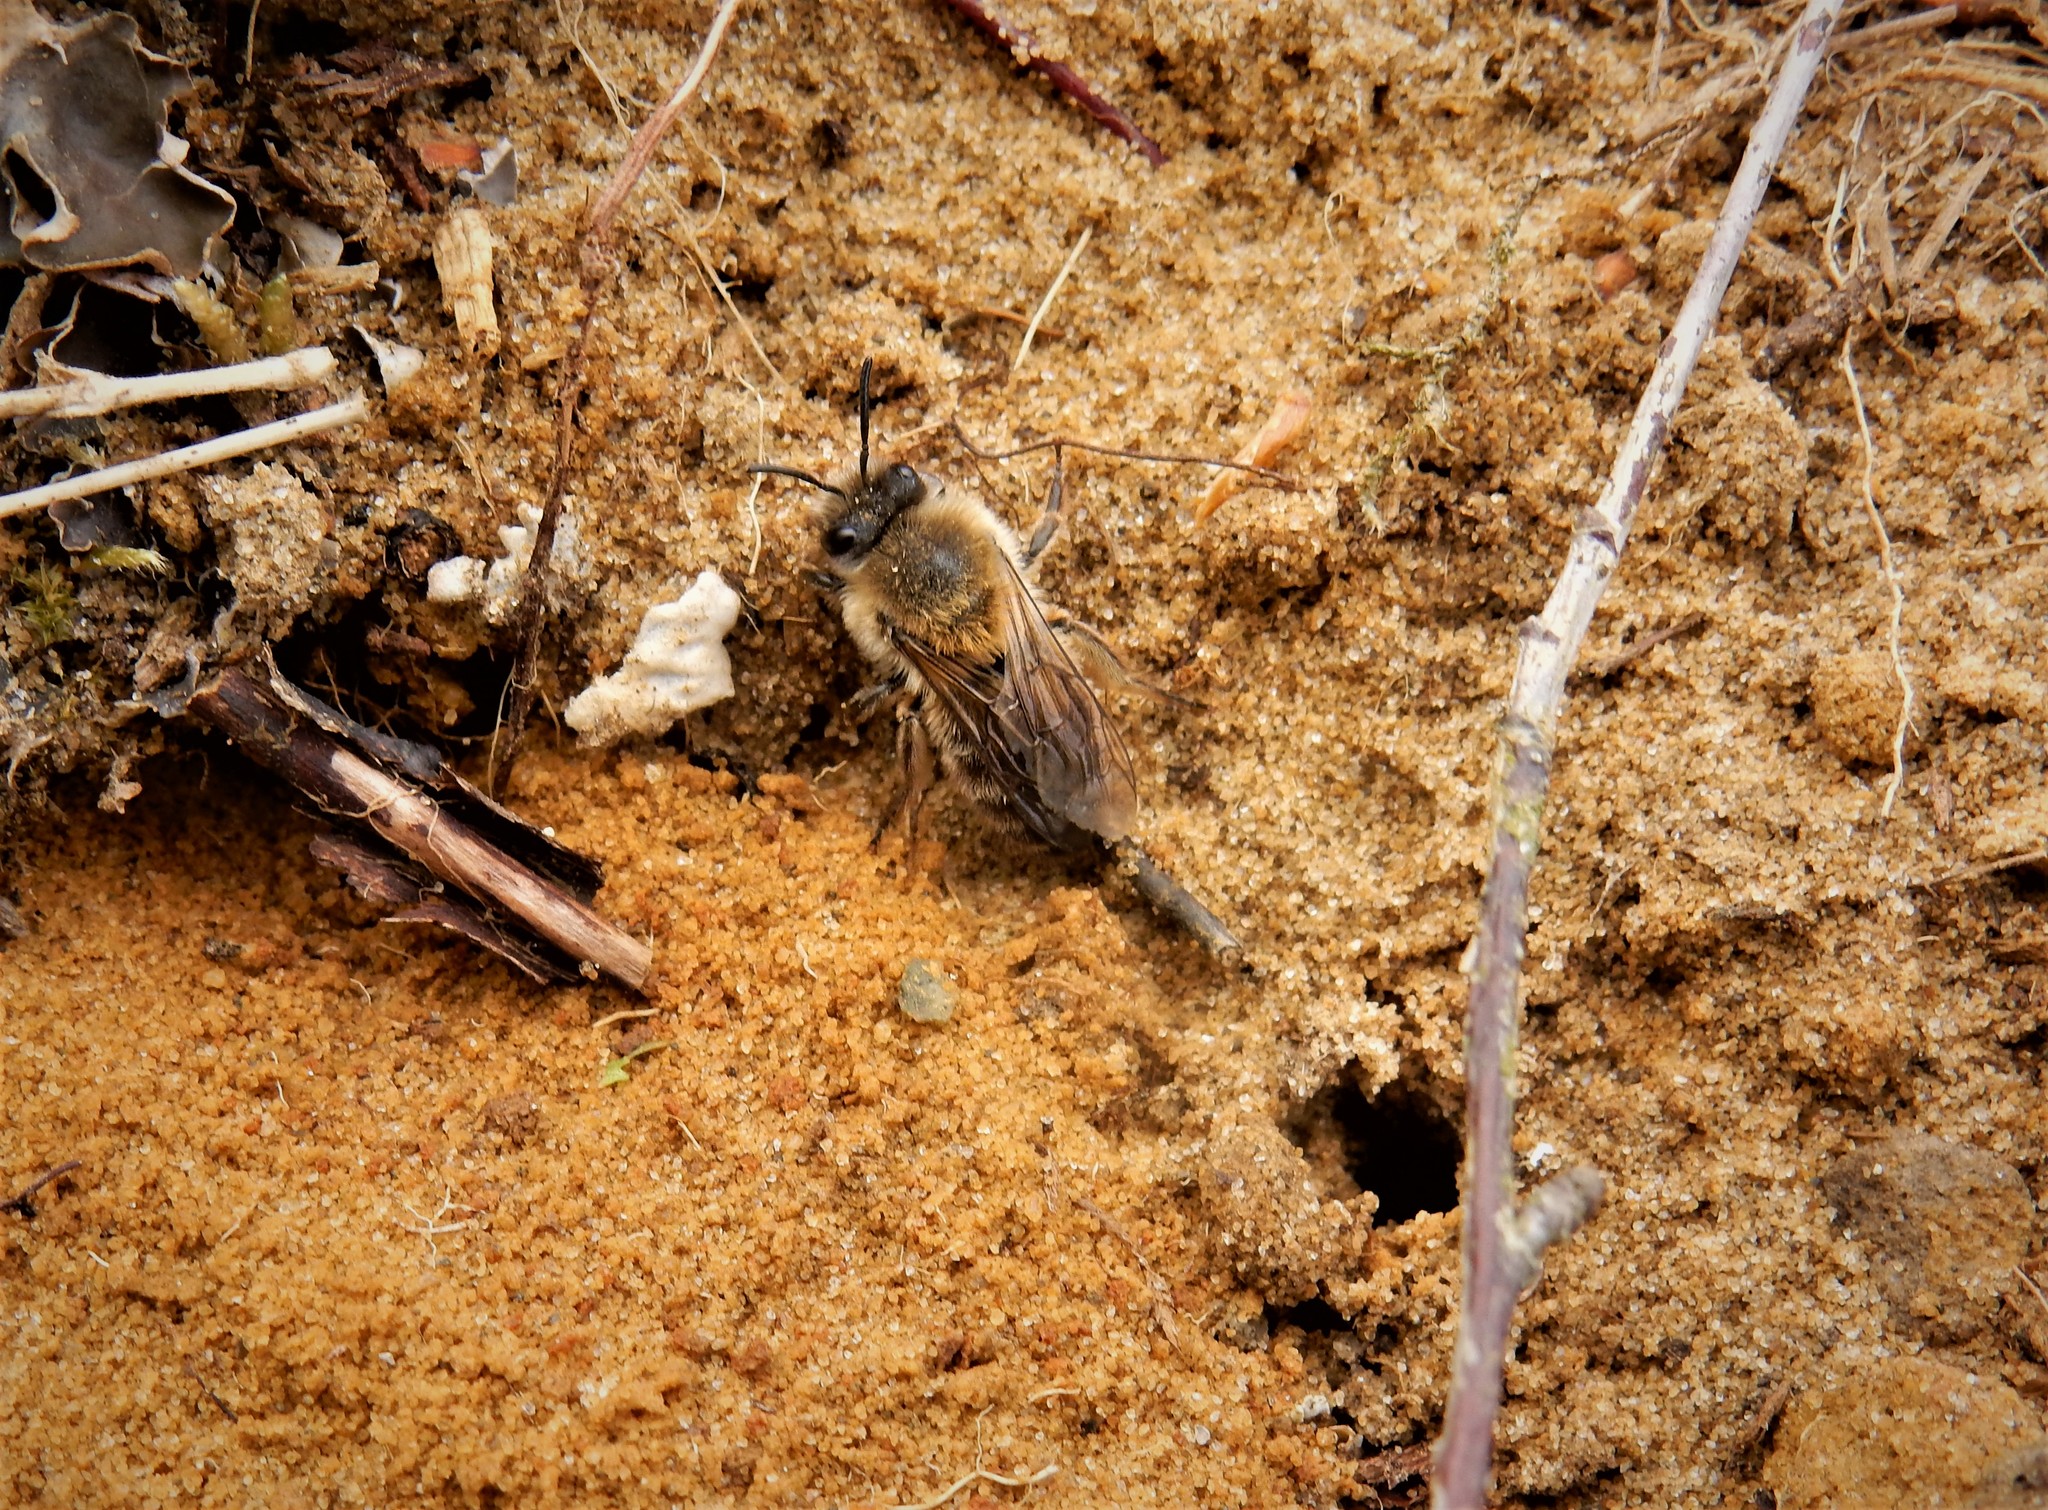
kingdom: Animalia
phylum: Arthropoda
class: Insecta
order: Hymenoptera
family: Colletidae
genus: Colletes
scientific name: Colletes cunicularius
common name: Early colletes
